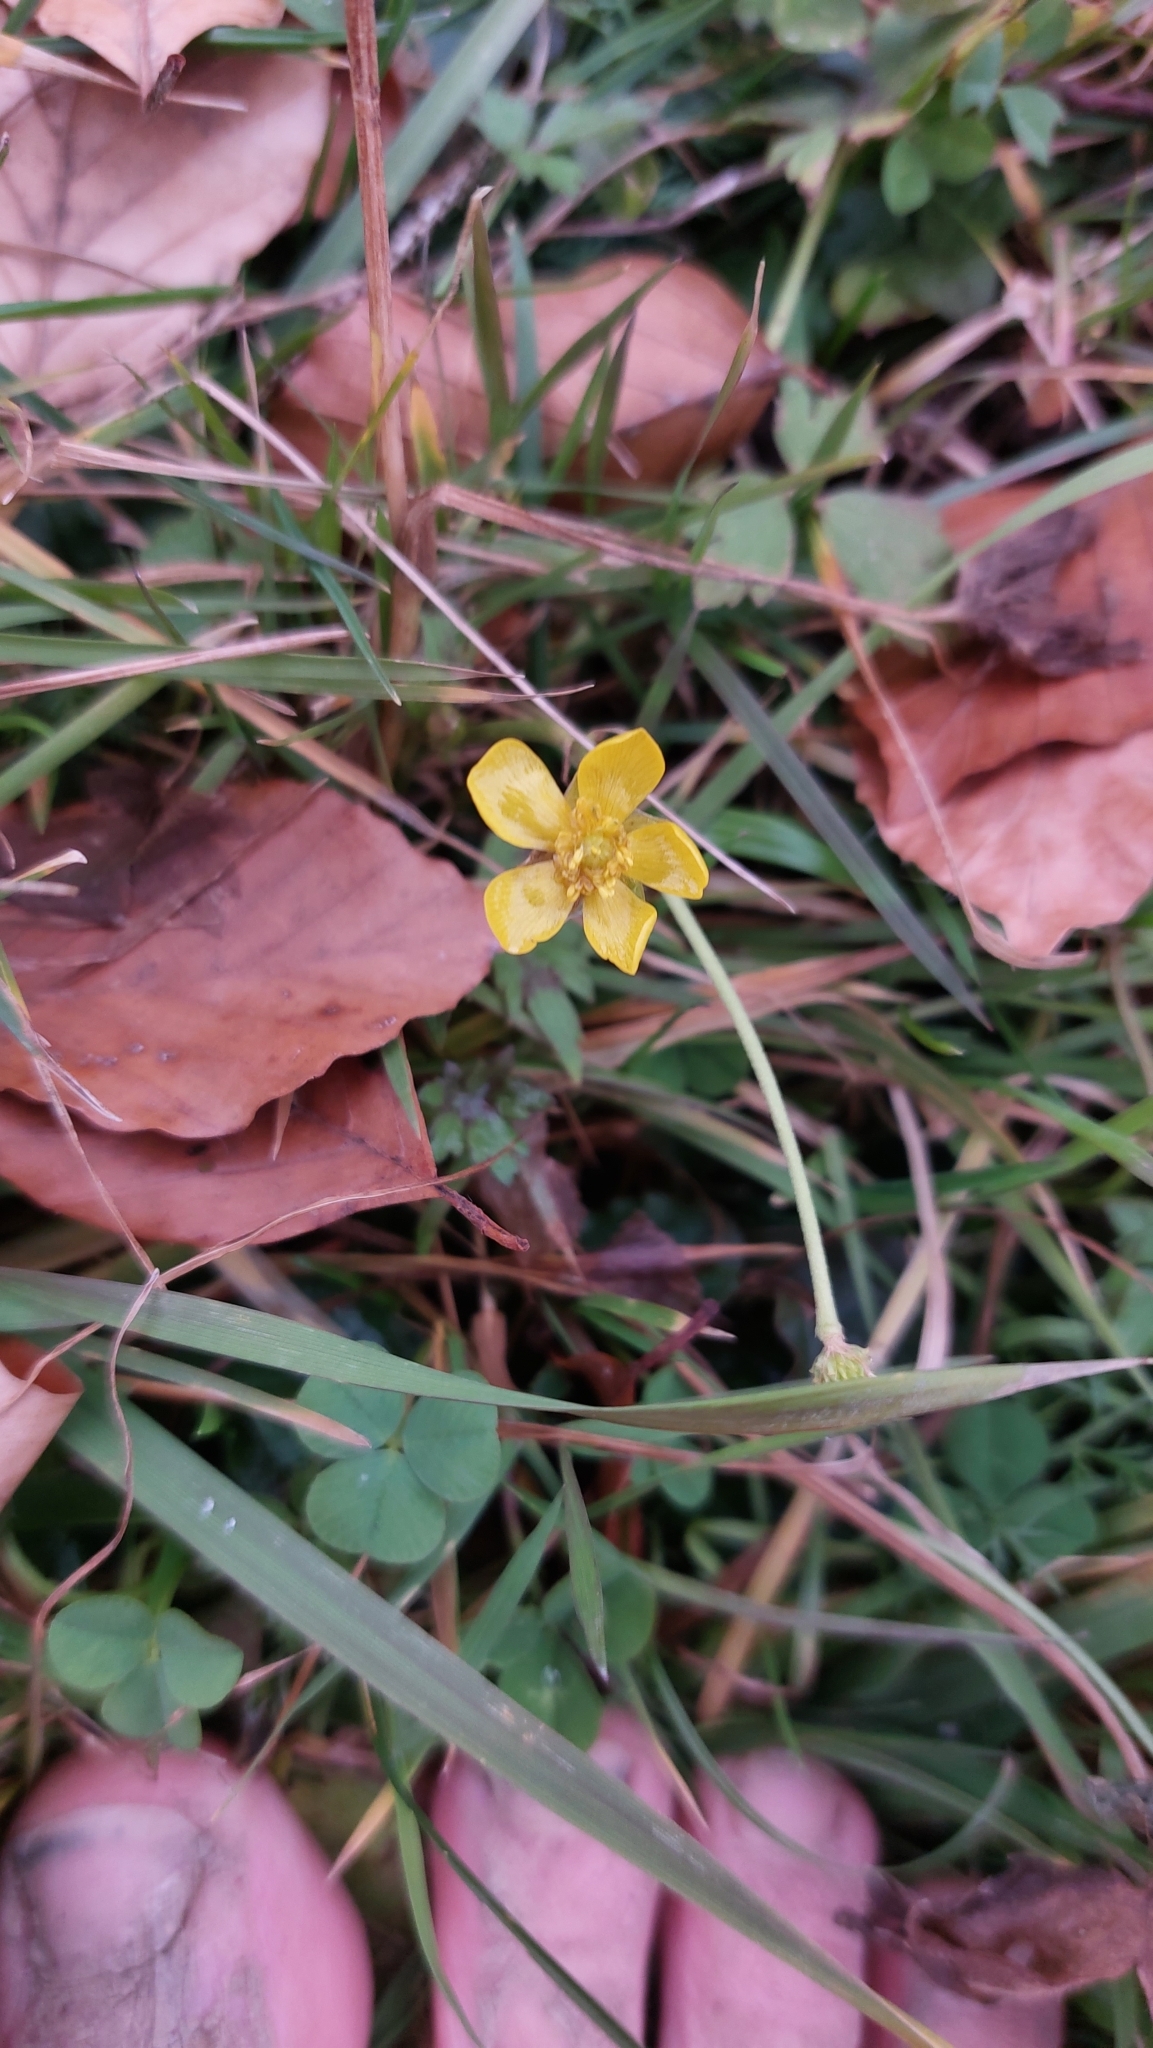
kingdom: Plantae
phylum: Tracheophyta
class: Magnoliopsida
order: Ranunculales
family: Ranunculaceae
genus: Ranunculus
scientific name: Ranunculus acris
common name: Meadow buttercup
